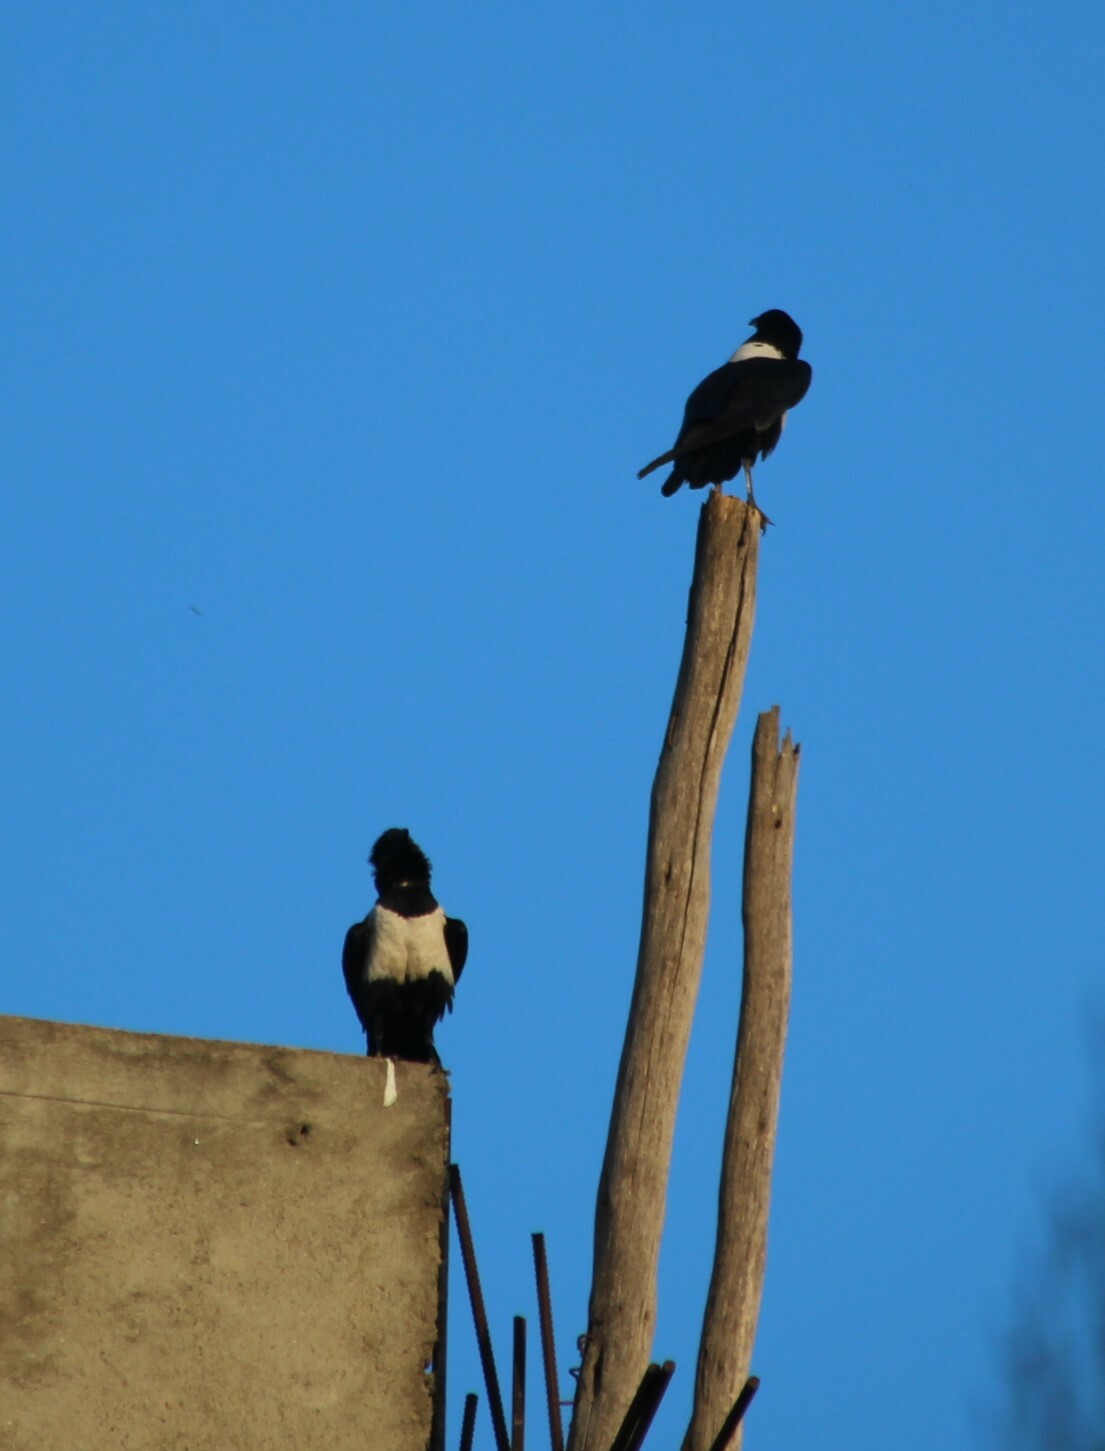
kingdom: Animalia
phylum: Chordata
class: Aves
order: Passeriformes
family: Corvidae
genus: Corvus
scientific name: Corvus albus
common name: Pied crow
